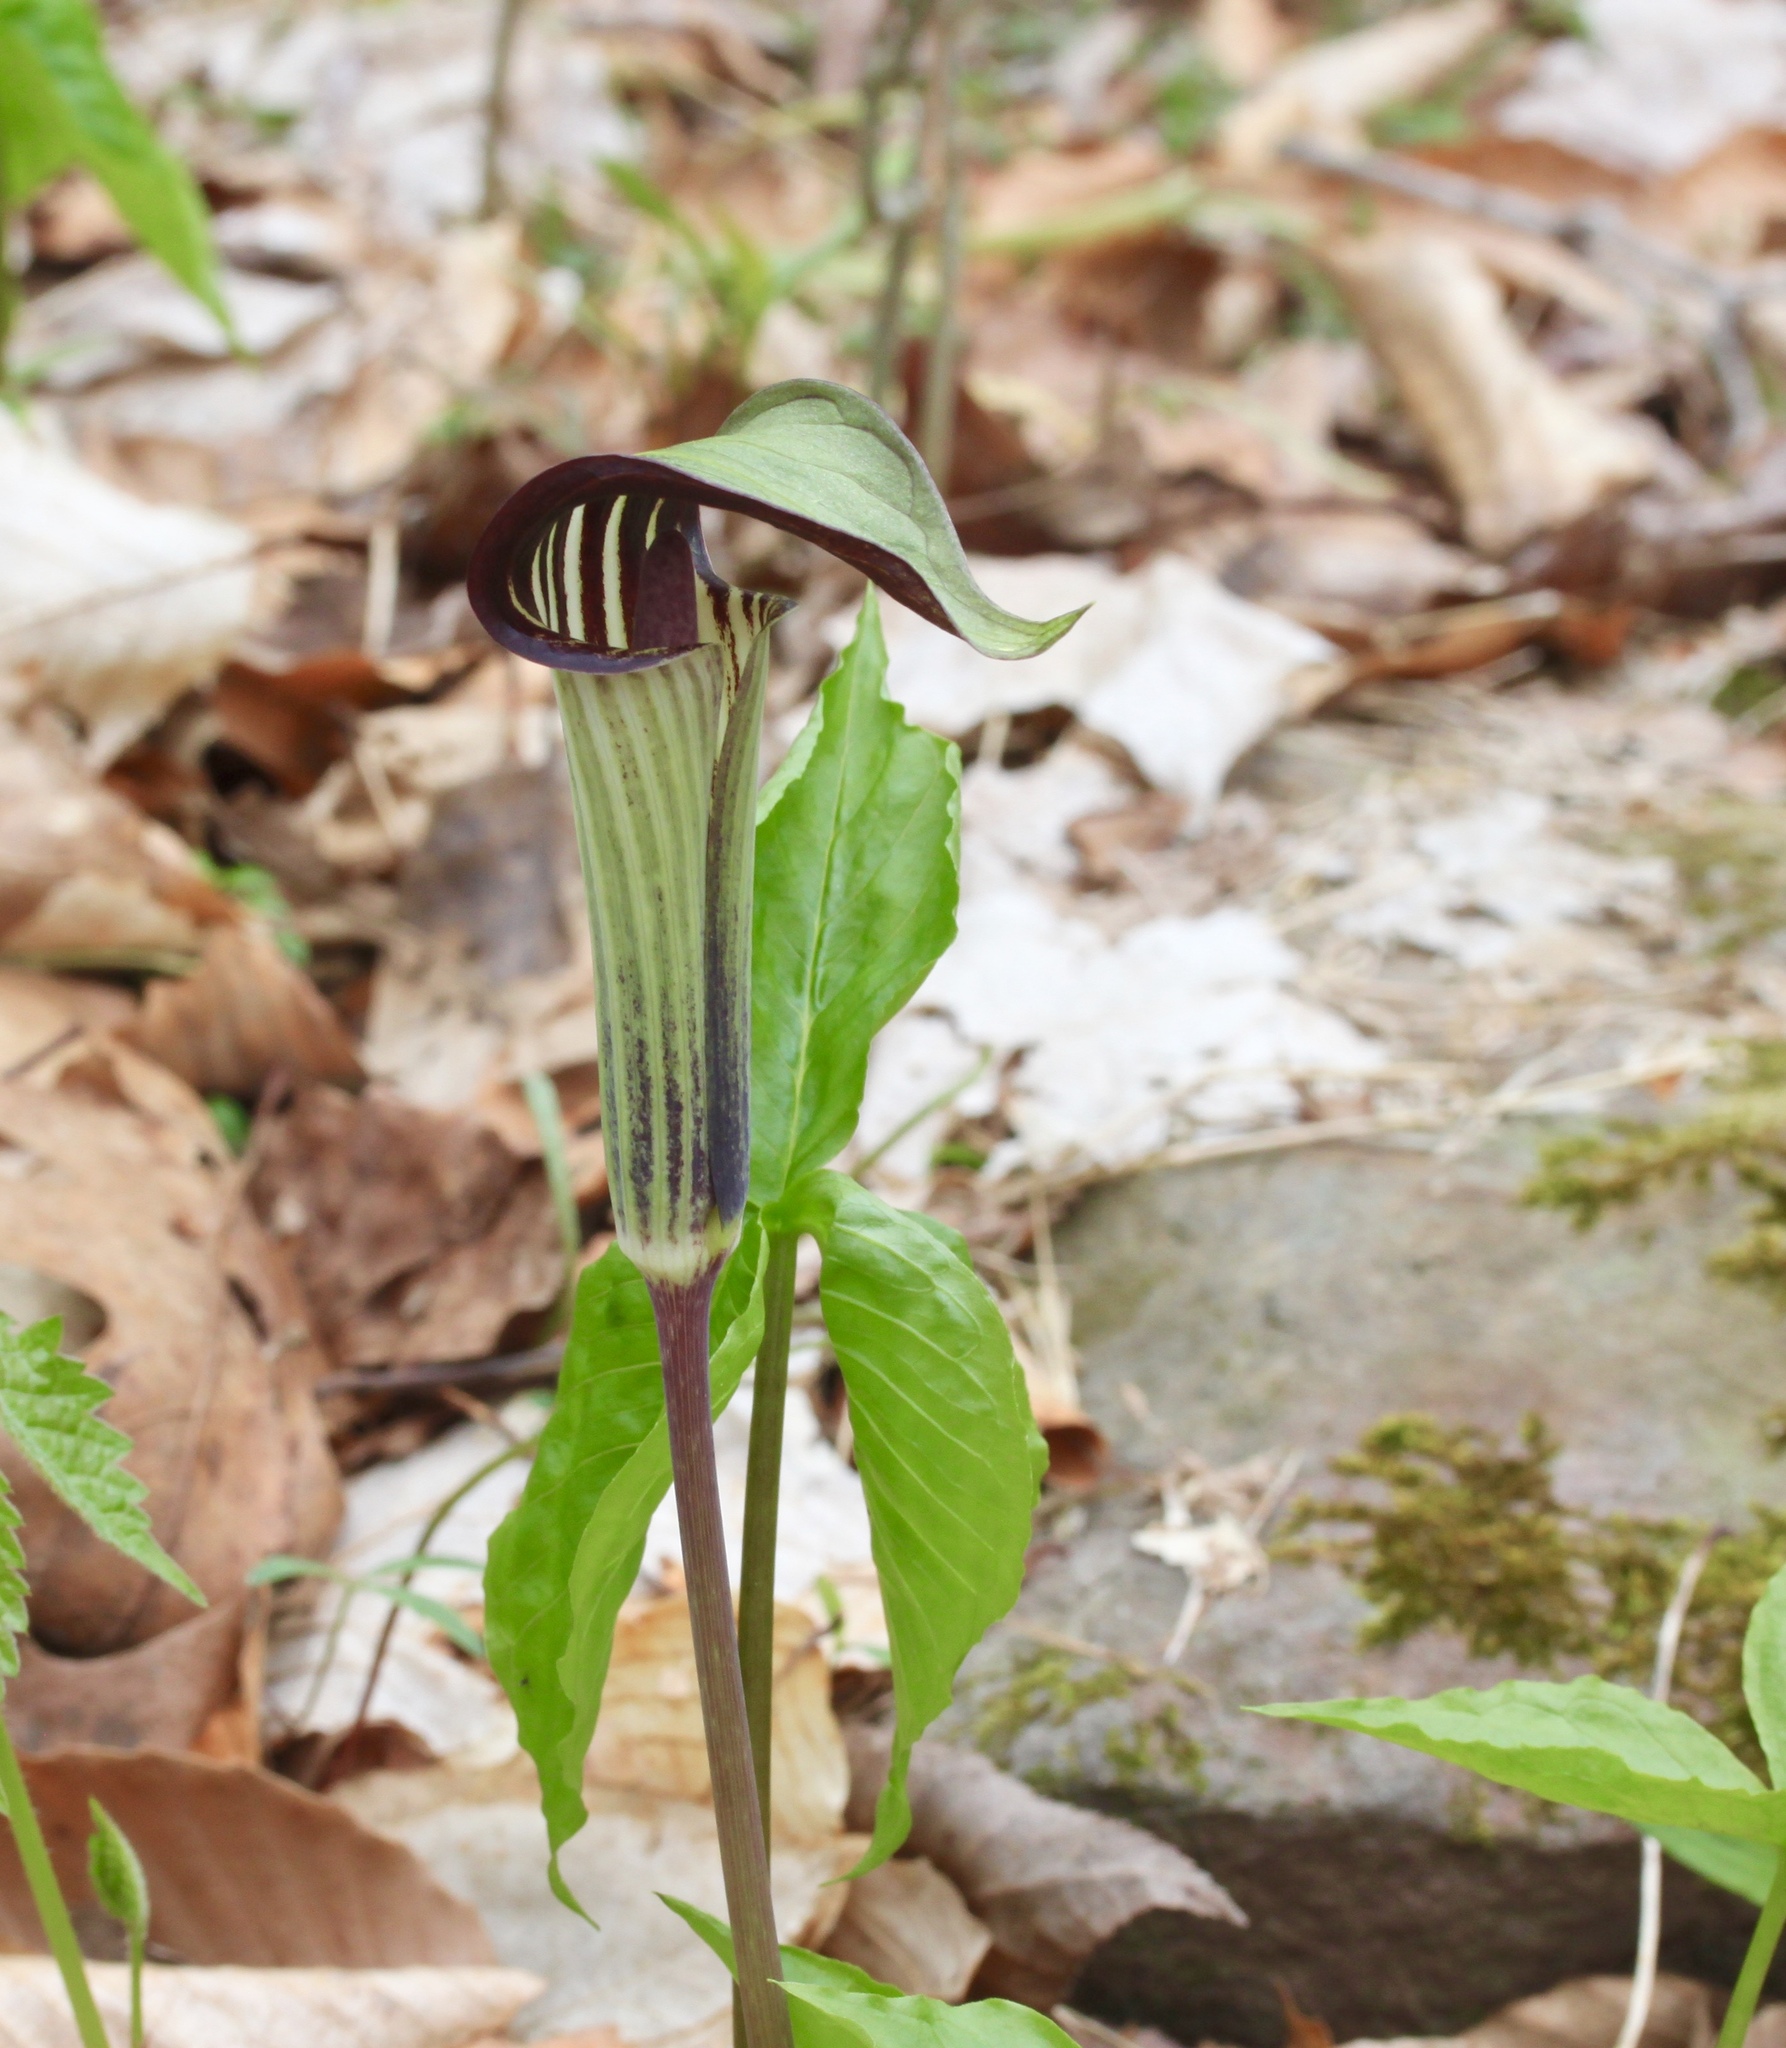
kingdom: Plantae
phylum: Tracheophyta
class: Liliopsida
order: Alismatales
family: Araceae
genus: Arisaema
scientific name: Arisaema triphyllum
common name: Jack-in-the-pulpit
